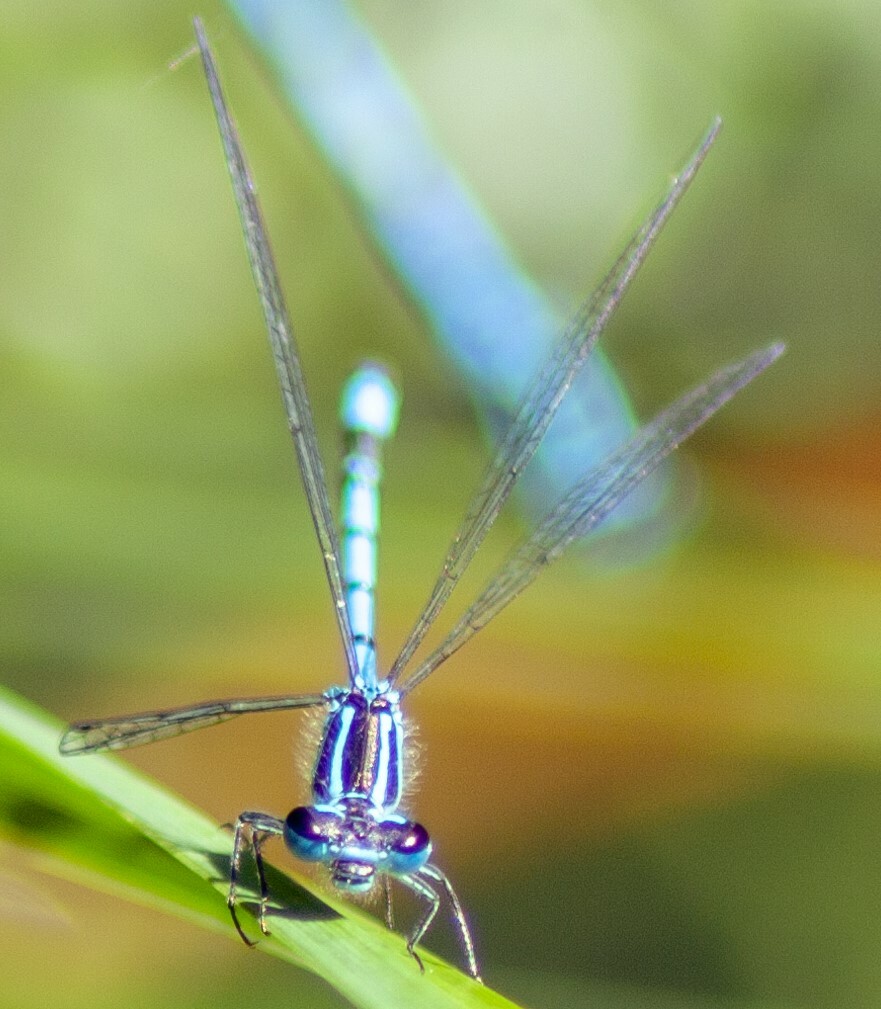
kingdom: Animalia
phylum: Arthropoda
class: Insecta
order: Odonata
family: Coenagrionidae
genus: Coenagrion
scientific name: Coenagrion puella
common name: Azure damselfly
